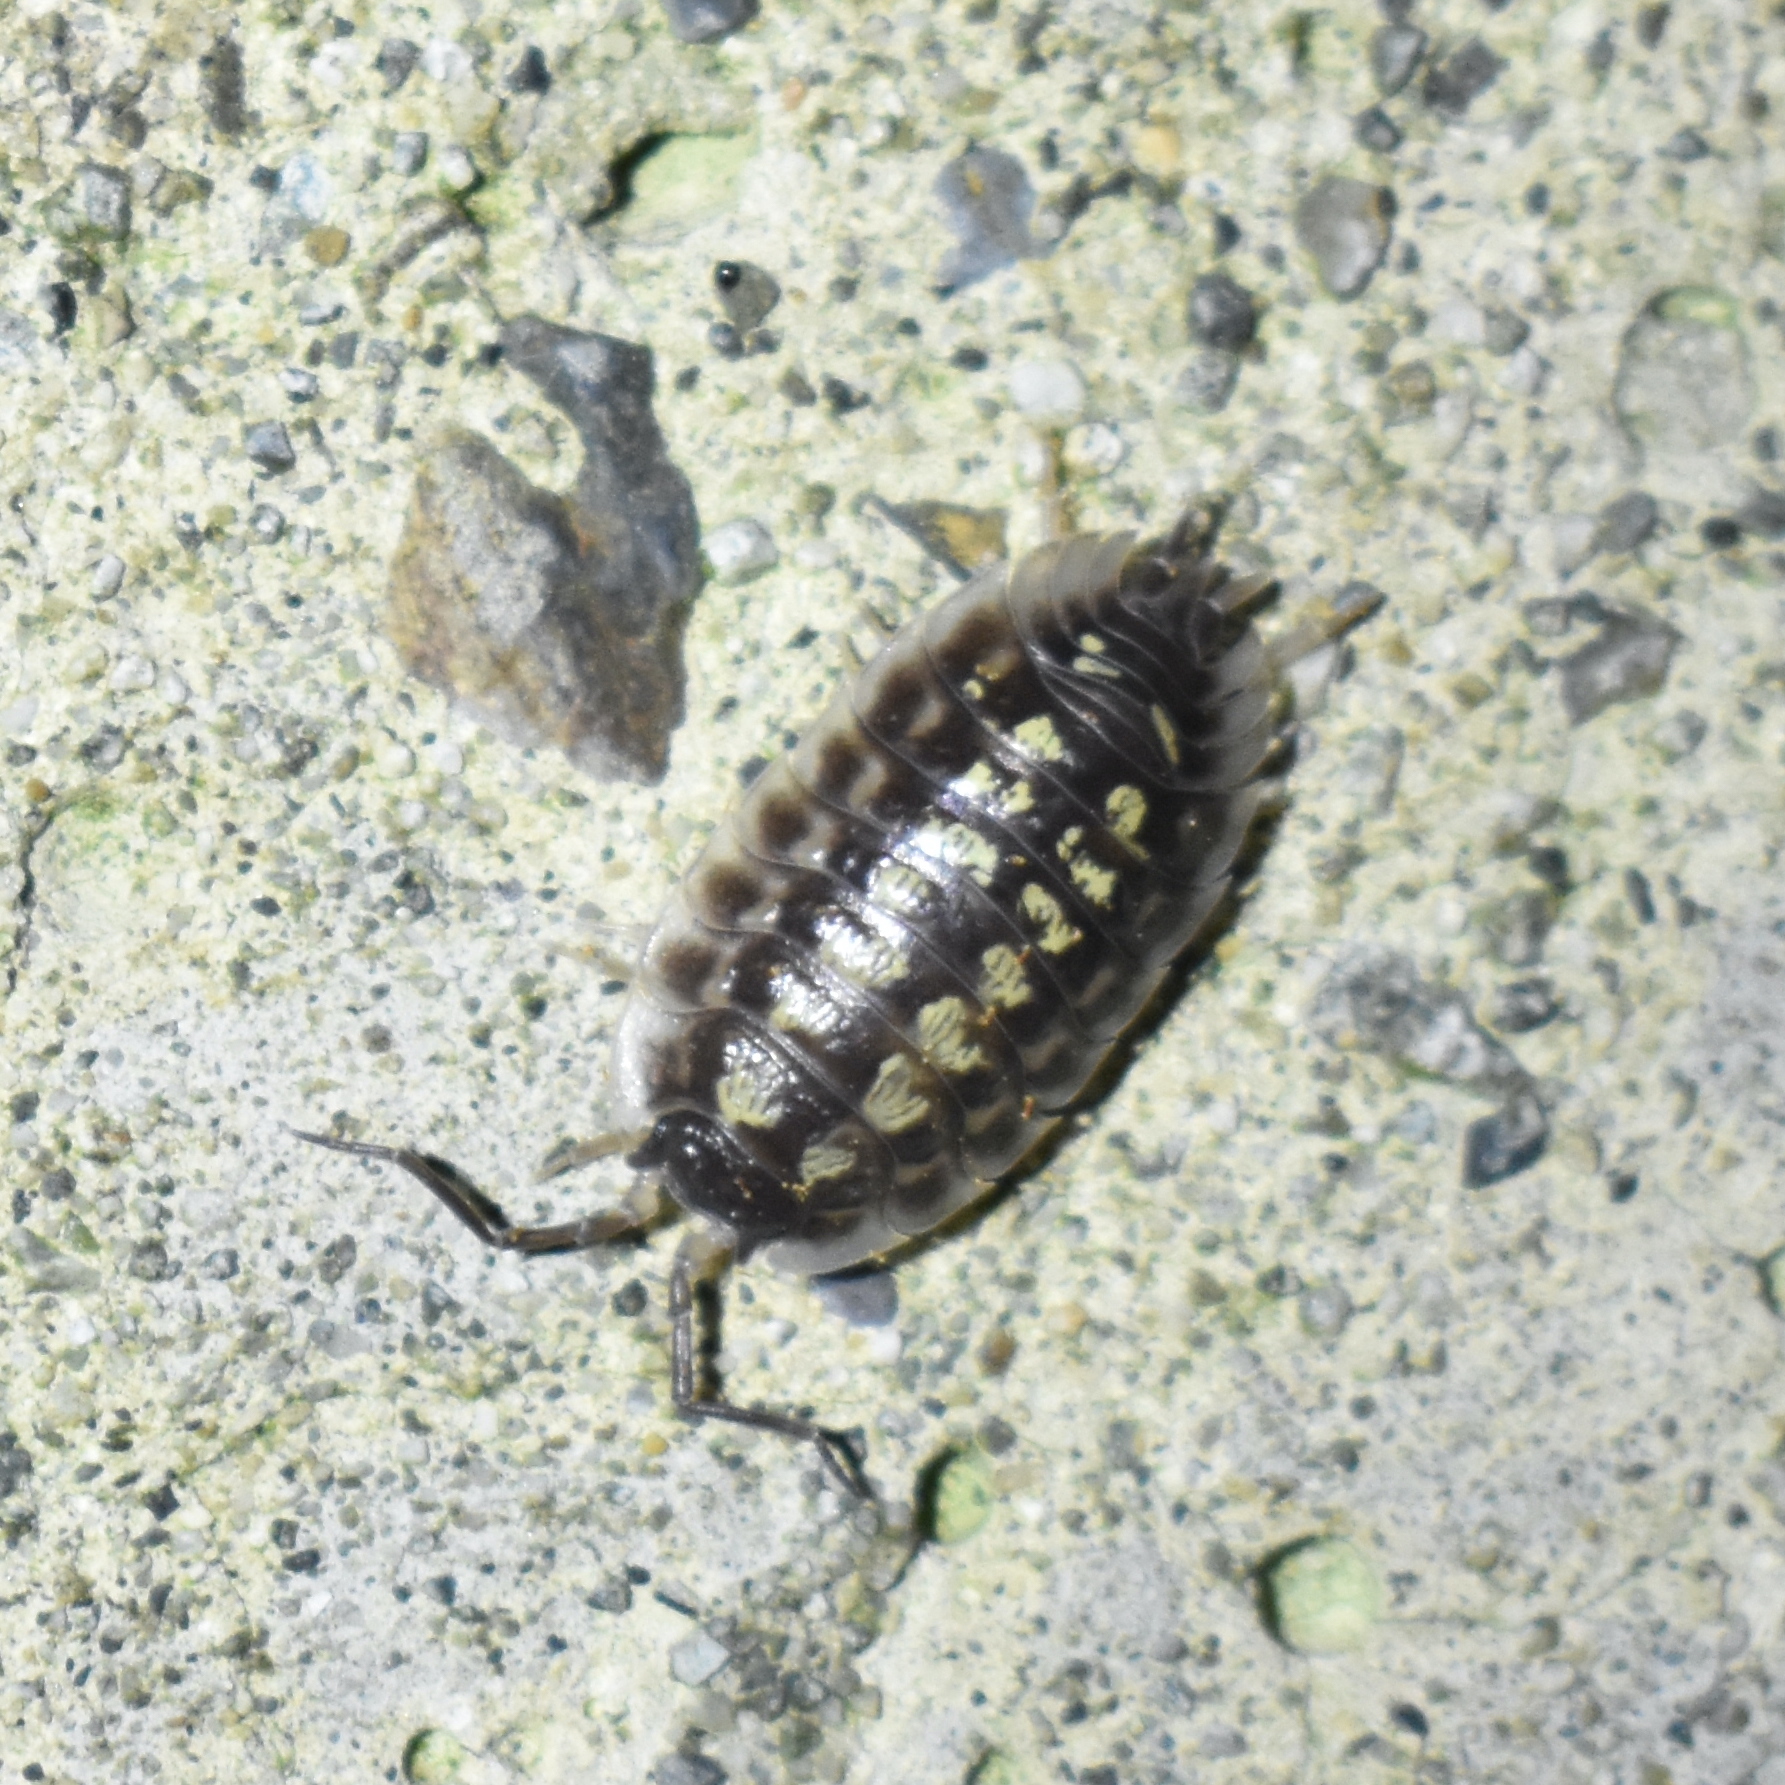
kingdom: Animalia
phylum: Arthropoda
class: Malacostraca
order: Isopoda
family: Oniscidae
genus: Oniscus
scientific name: Oniscus asellus
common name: Common shiny woodlouse
